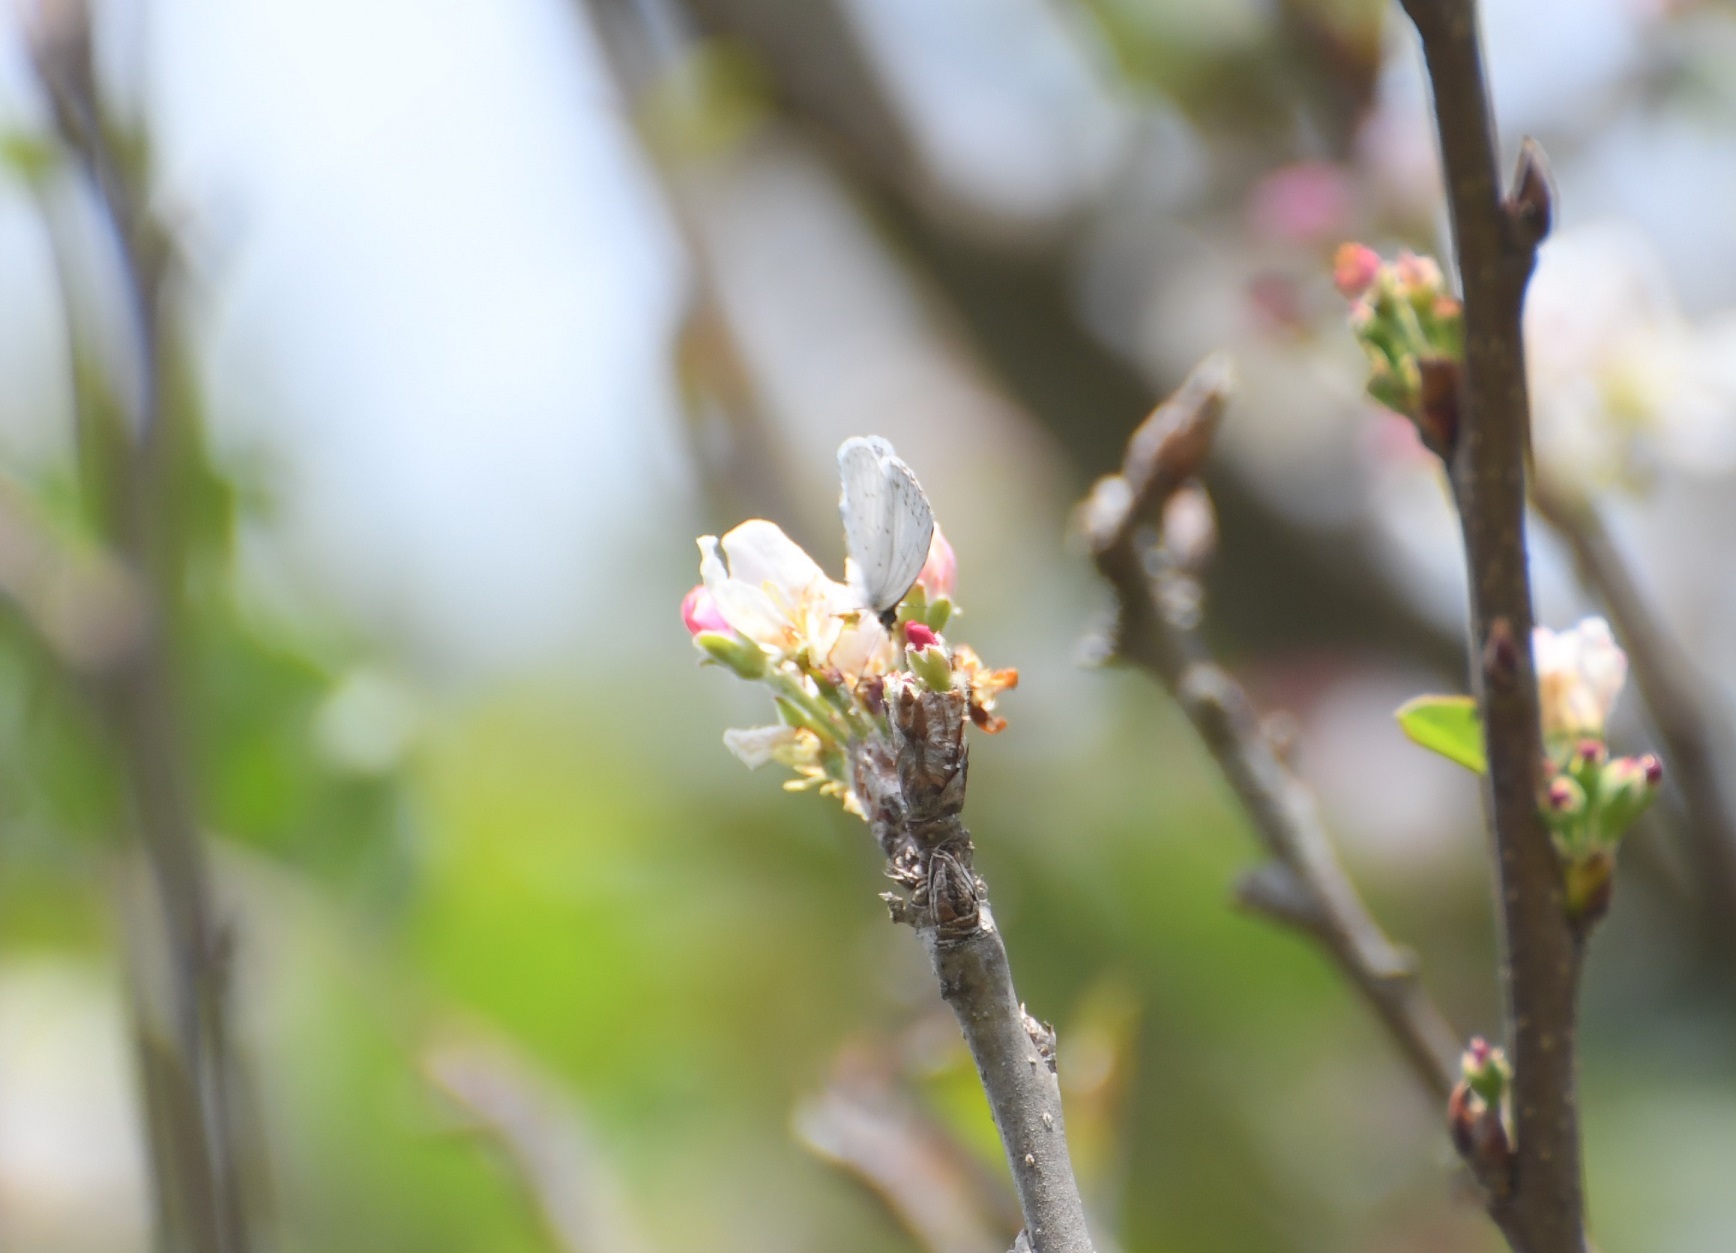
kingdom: Animalia
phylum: Arthropoda
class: Insecta
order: Lepidoptera
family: Lycaenidae
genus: Celastrina
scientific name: Celastrina ladon
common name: Spring azure
